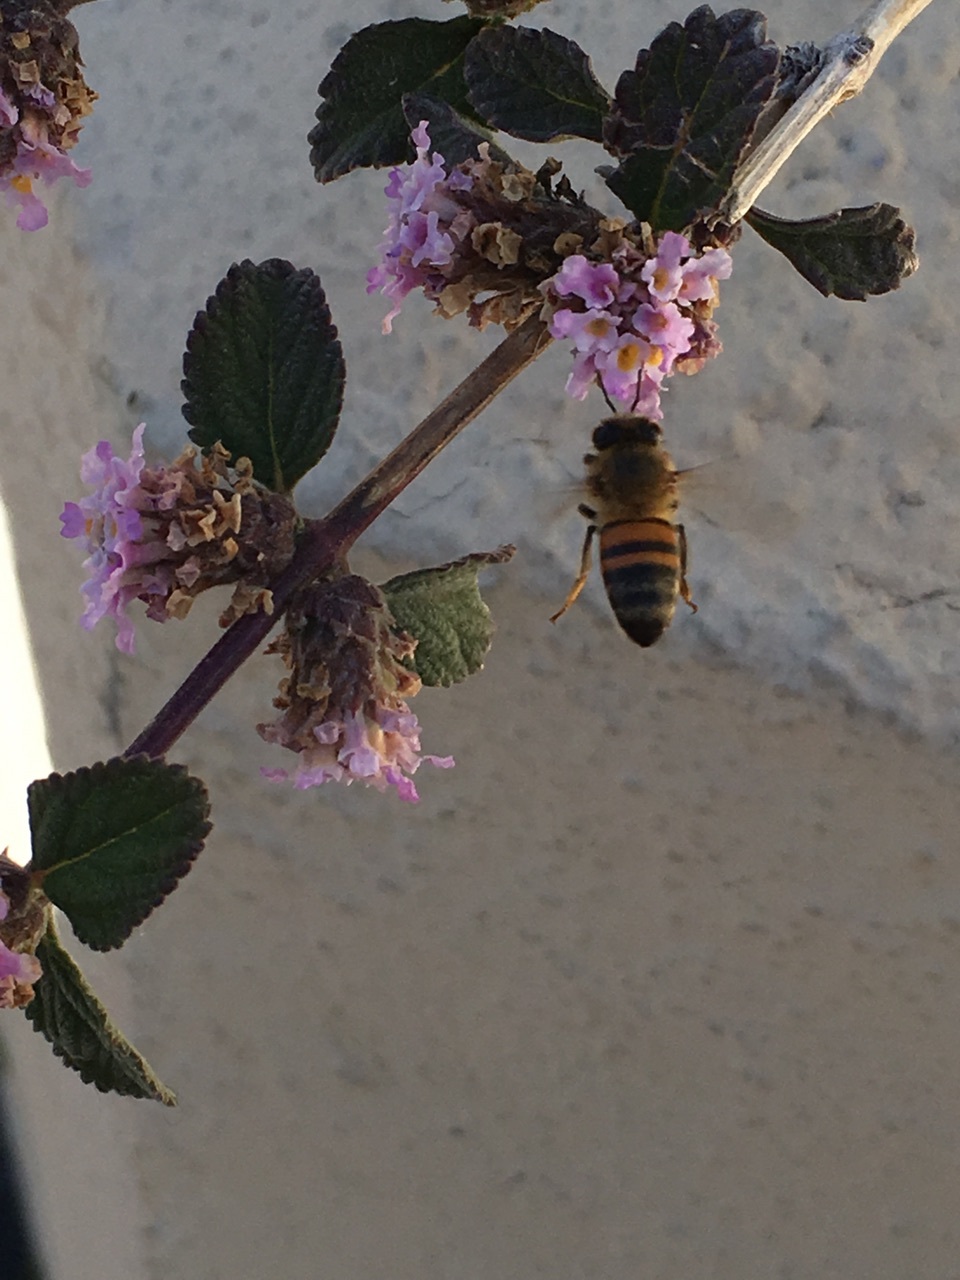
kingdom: Animalia
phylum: Arthropoda
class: Insecta
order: Hymenoptera
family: Apidae
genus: Apis
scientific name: Apis mellifera
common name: Honey bee
